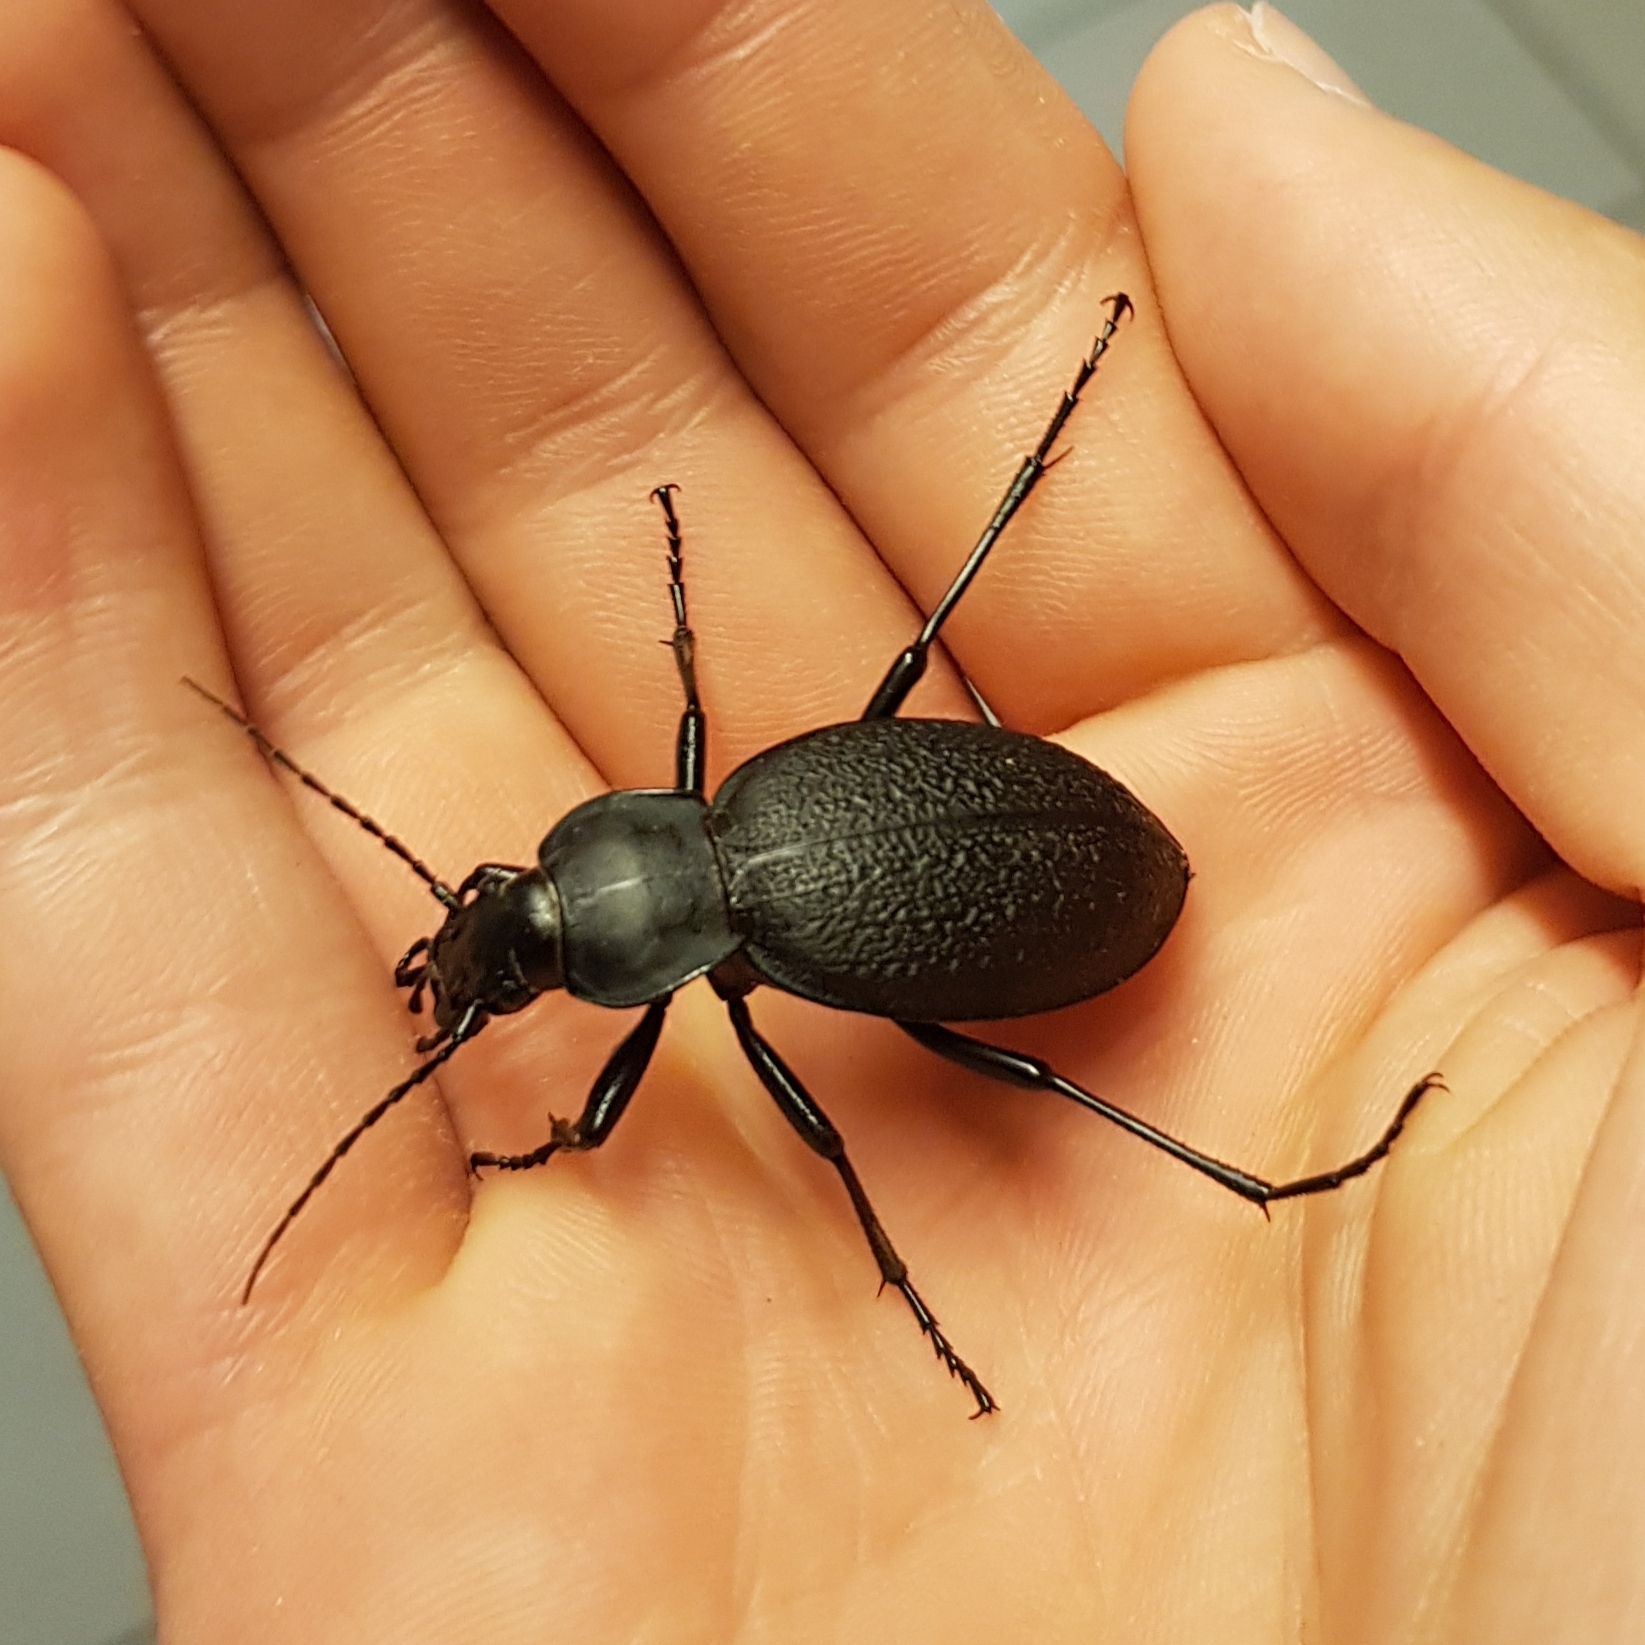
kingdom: Animalia
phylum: Arthropoda
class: Insecta
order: Coleoptera
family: Carabidae
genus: Carabus
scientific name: Carabus coriaceus
